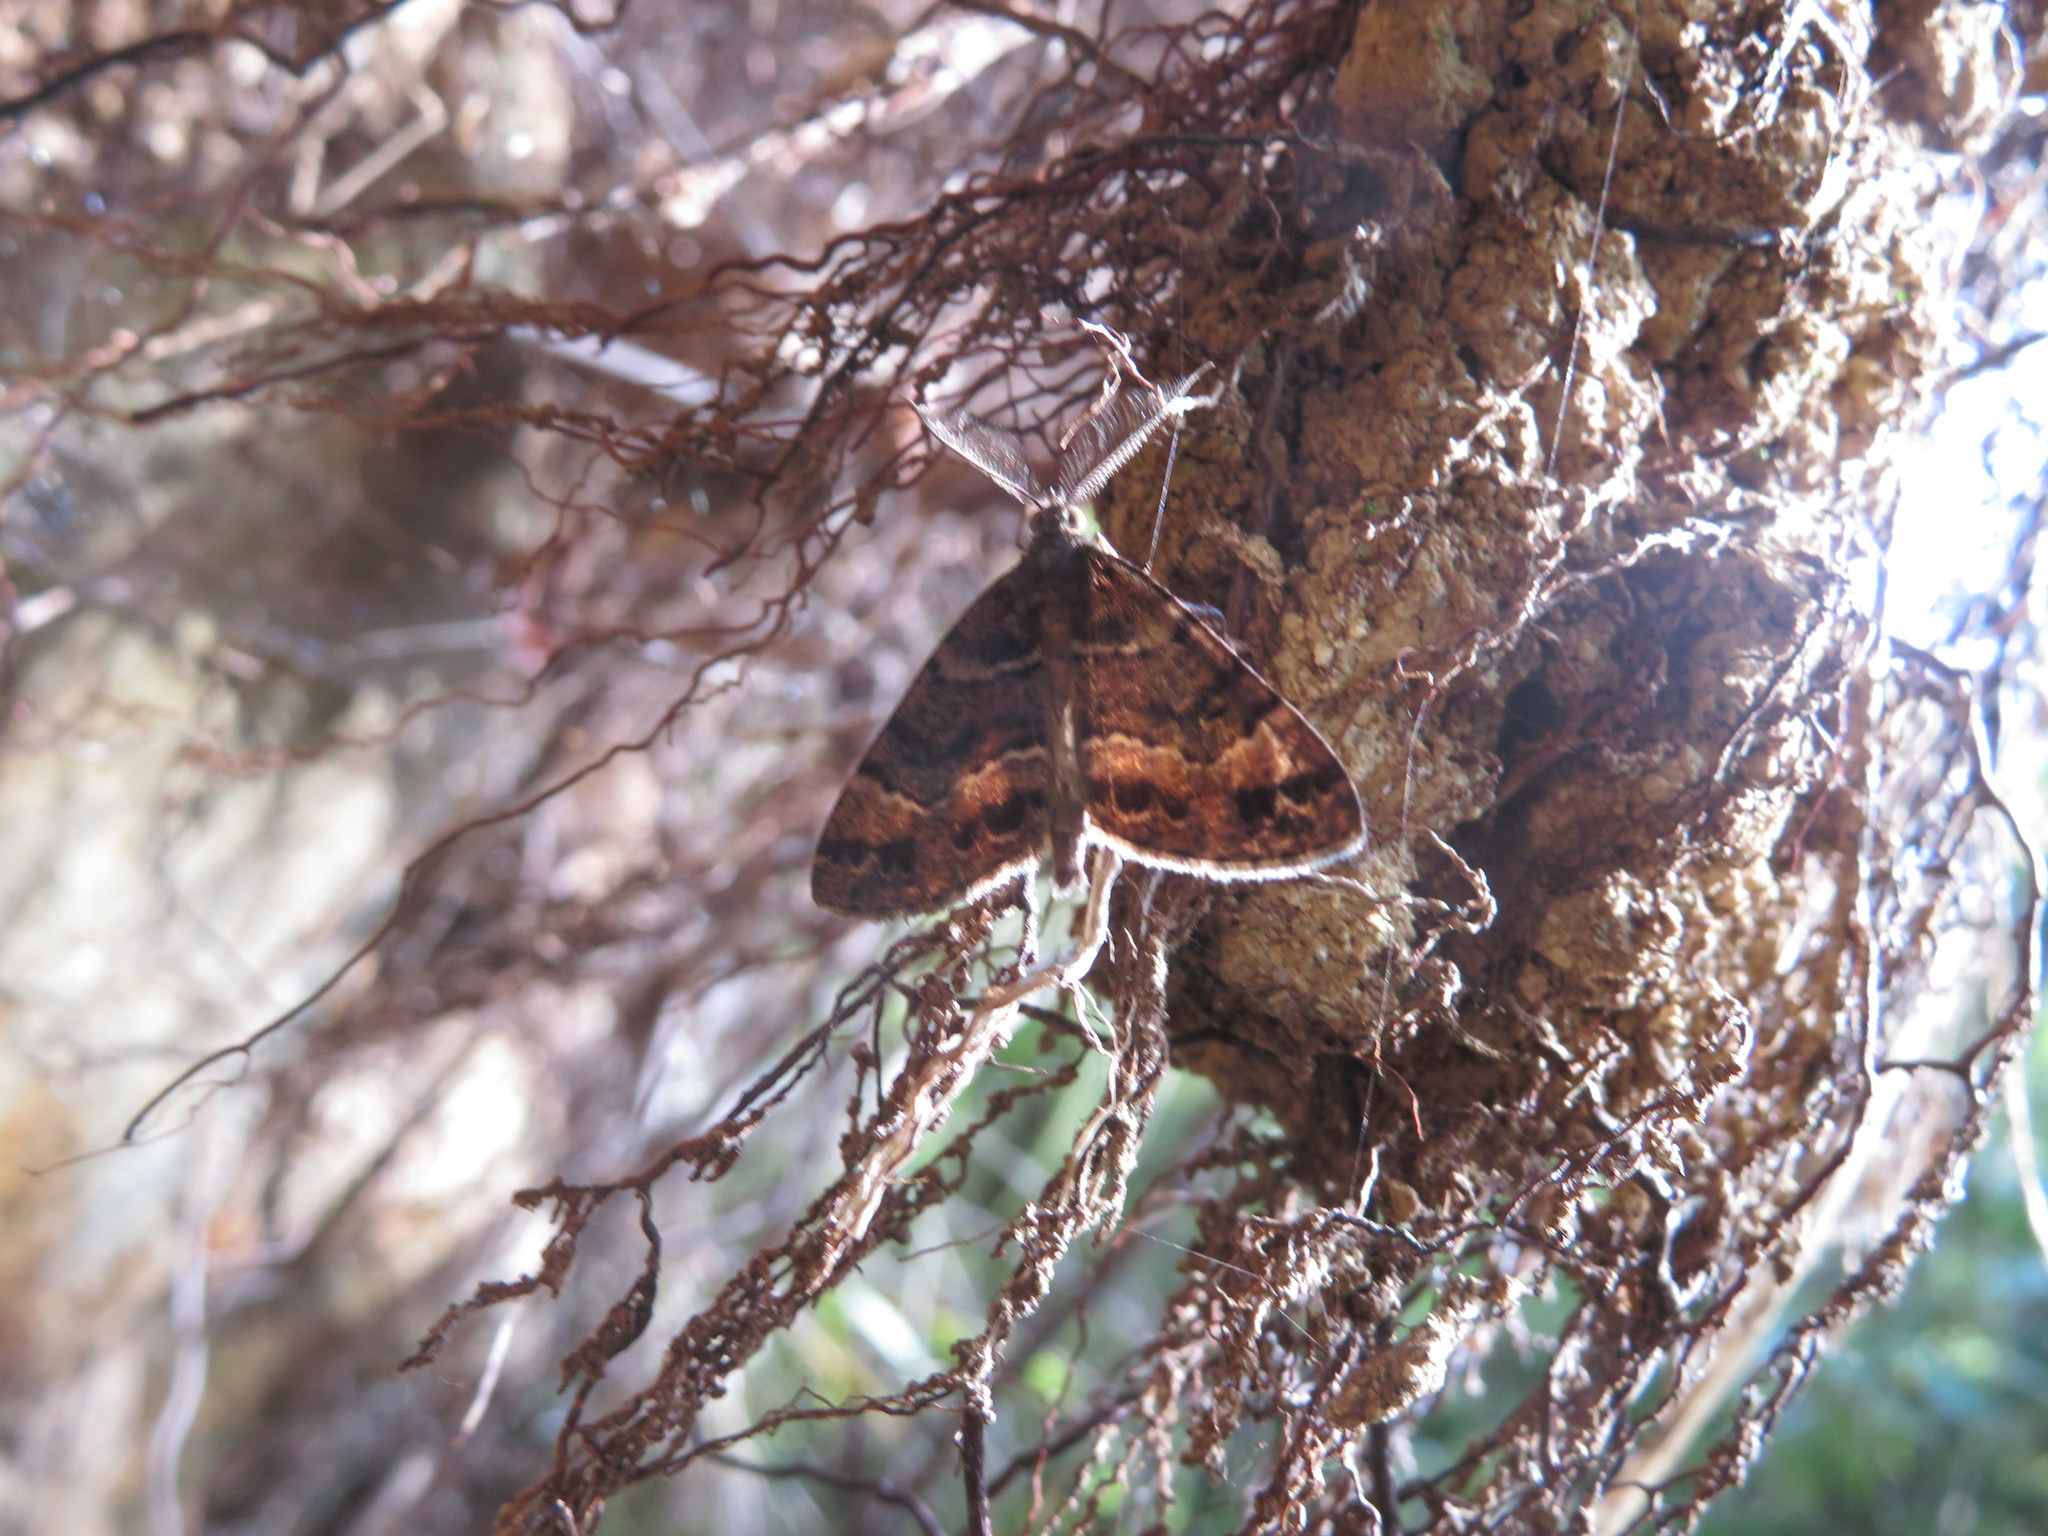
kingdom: Animalia
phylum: Arthropoda
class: Insecta
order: Lepidoptera
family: Geometridae
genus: Pseudocoremia
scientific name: Pseudocoremia productata
